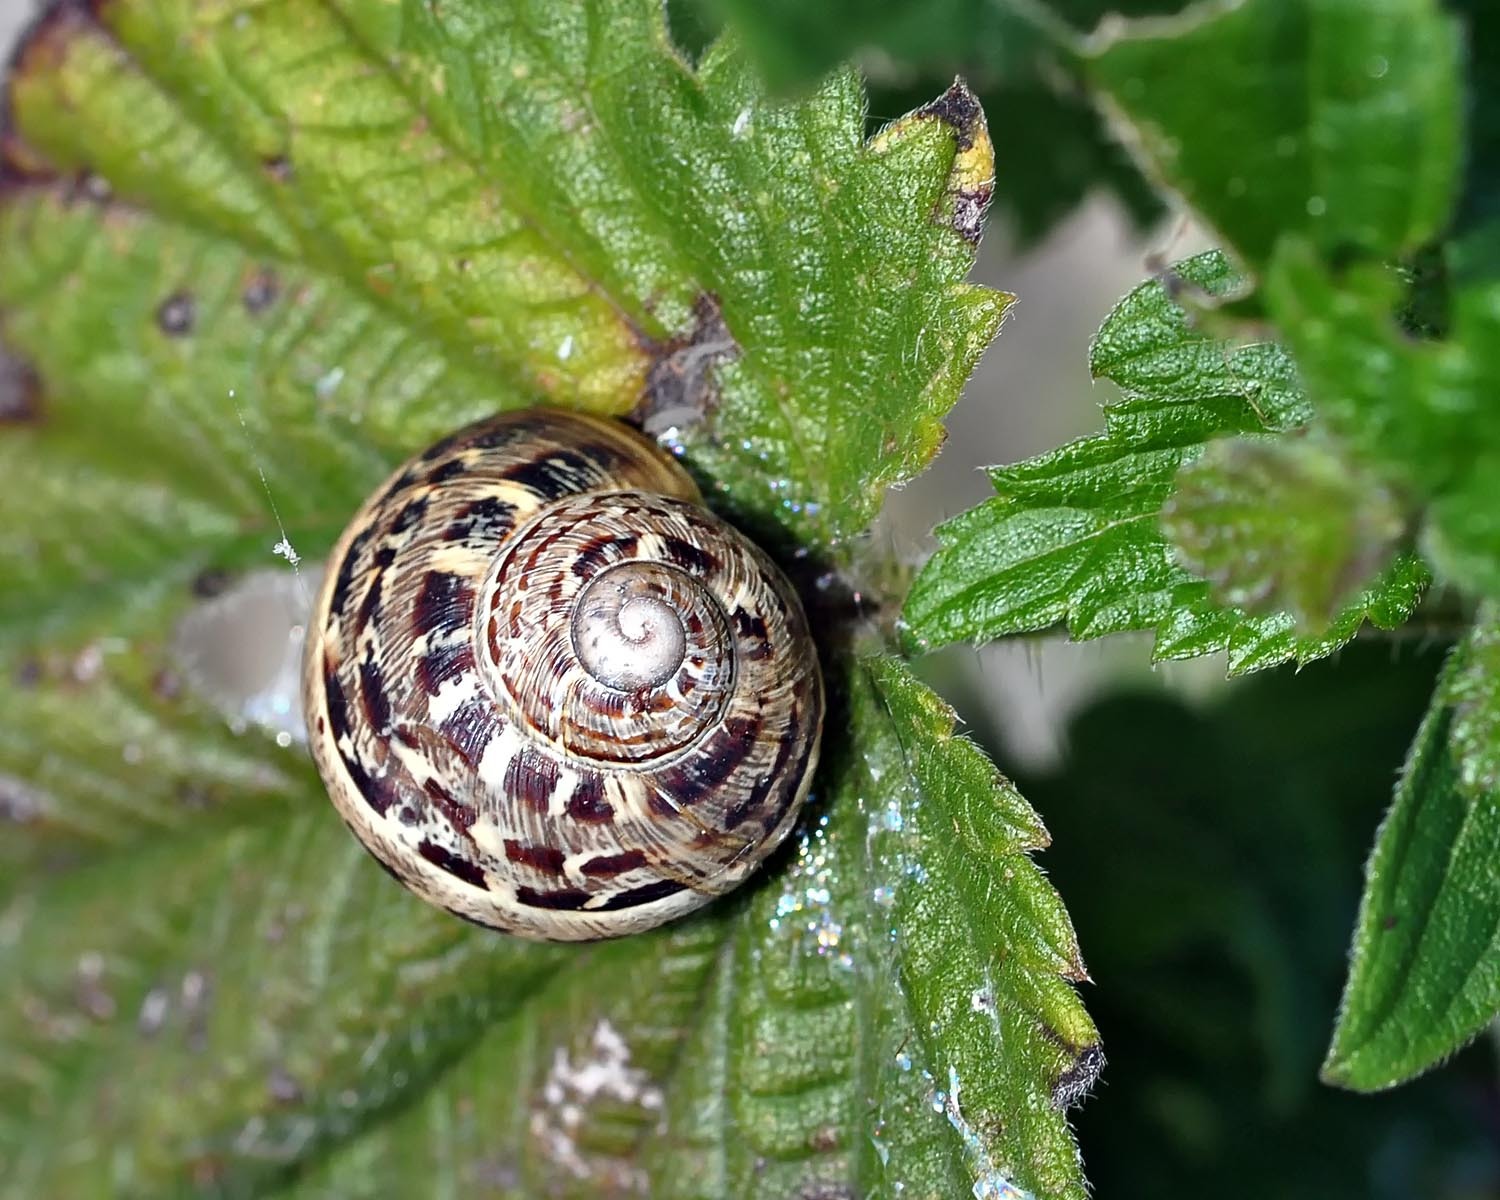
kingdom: Animalia
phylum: Mollusca
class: Gastropoda
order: Stylommatophora
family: Helicidae
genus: Cornu
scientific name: Cornu aspersum
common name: Brown garden snail
